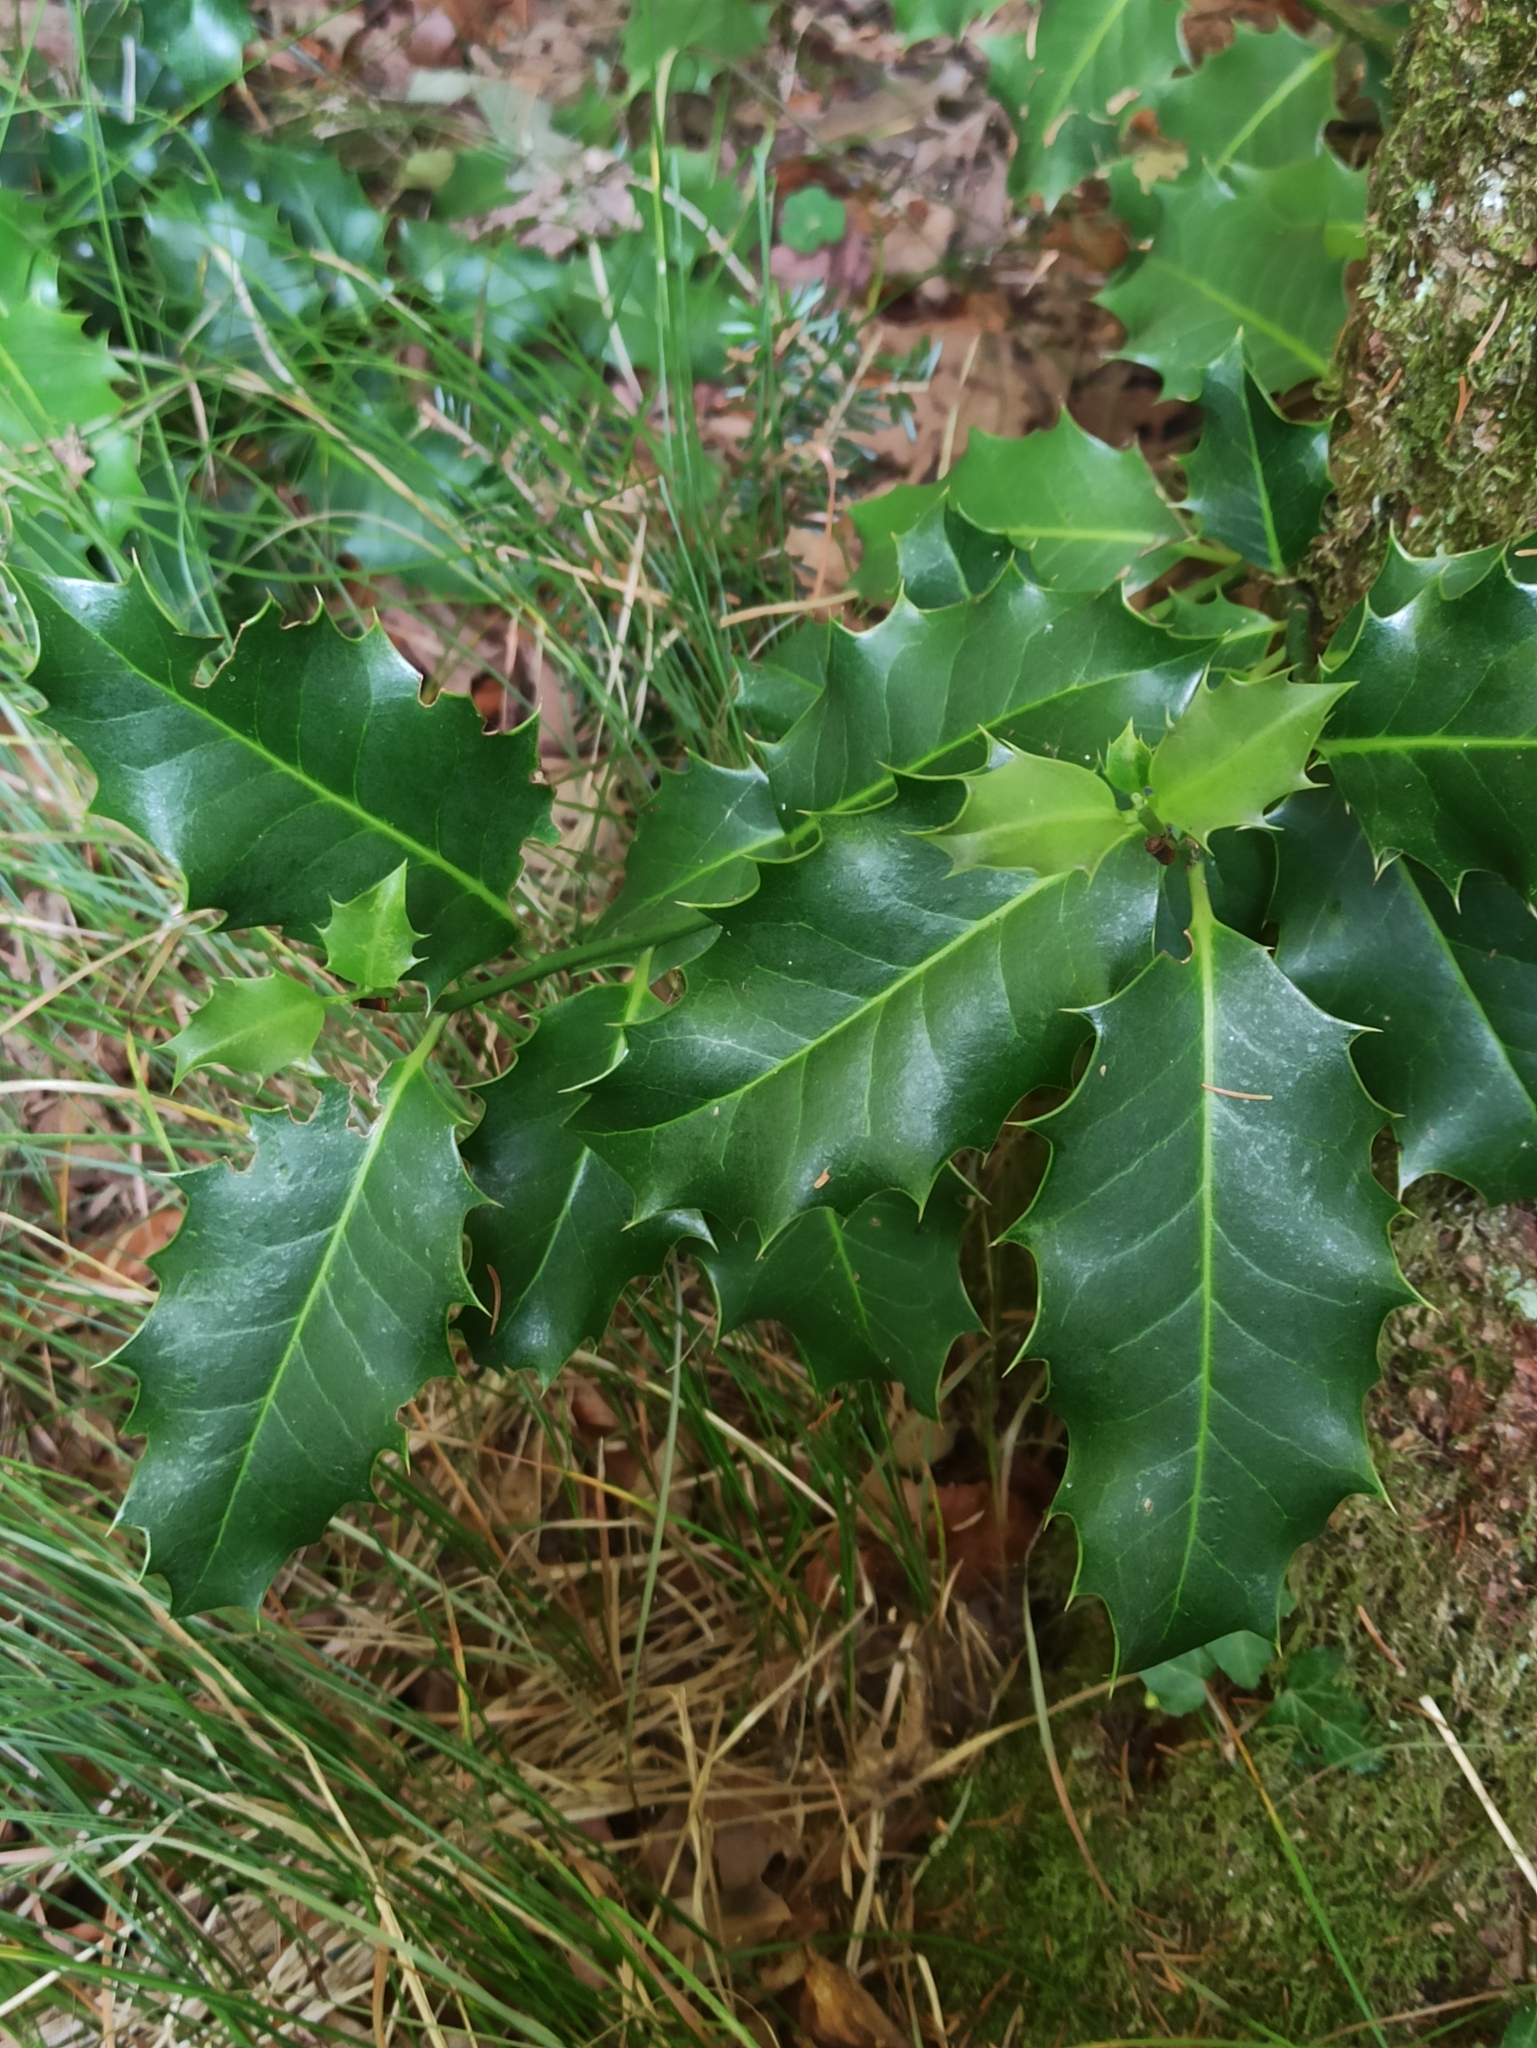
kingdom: Plantae
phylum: Tracheophyta
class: Magnoliopsida
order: Aquifoliales
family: Aquifoliaceae
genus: Ilex
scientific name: Ilex aquifolium
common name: English holly
